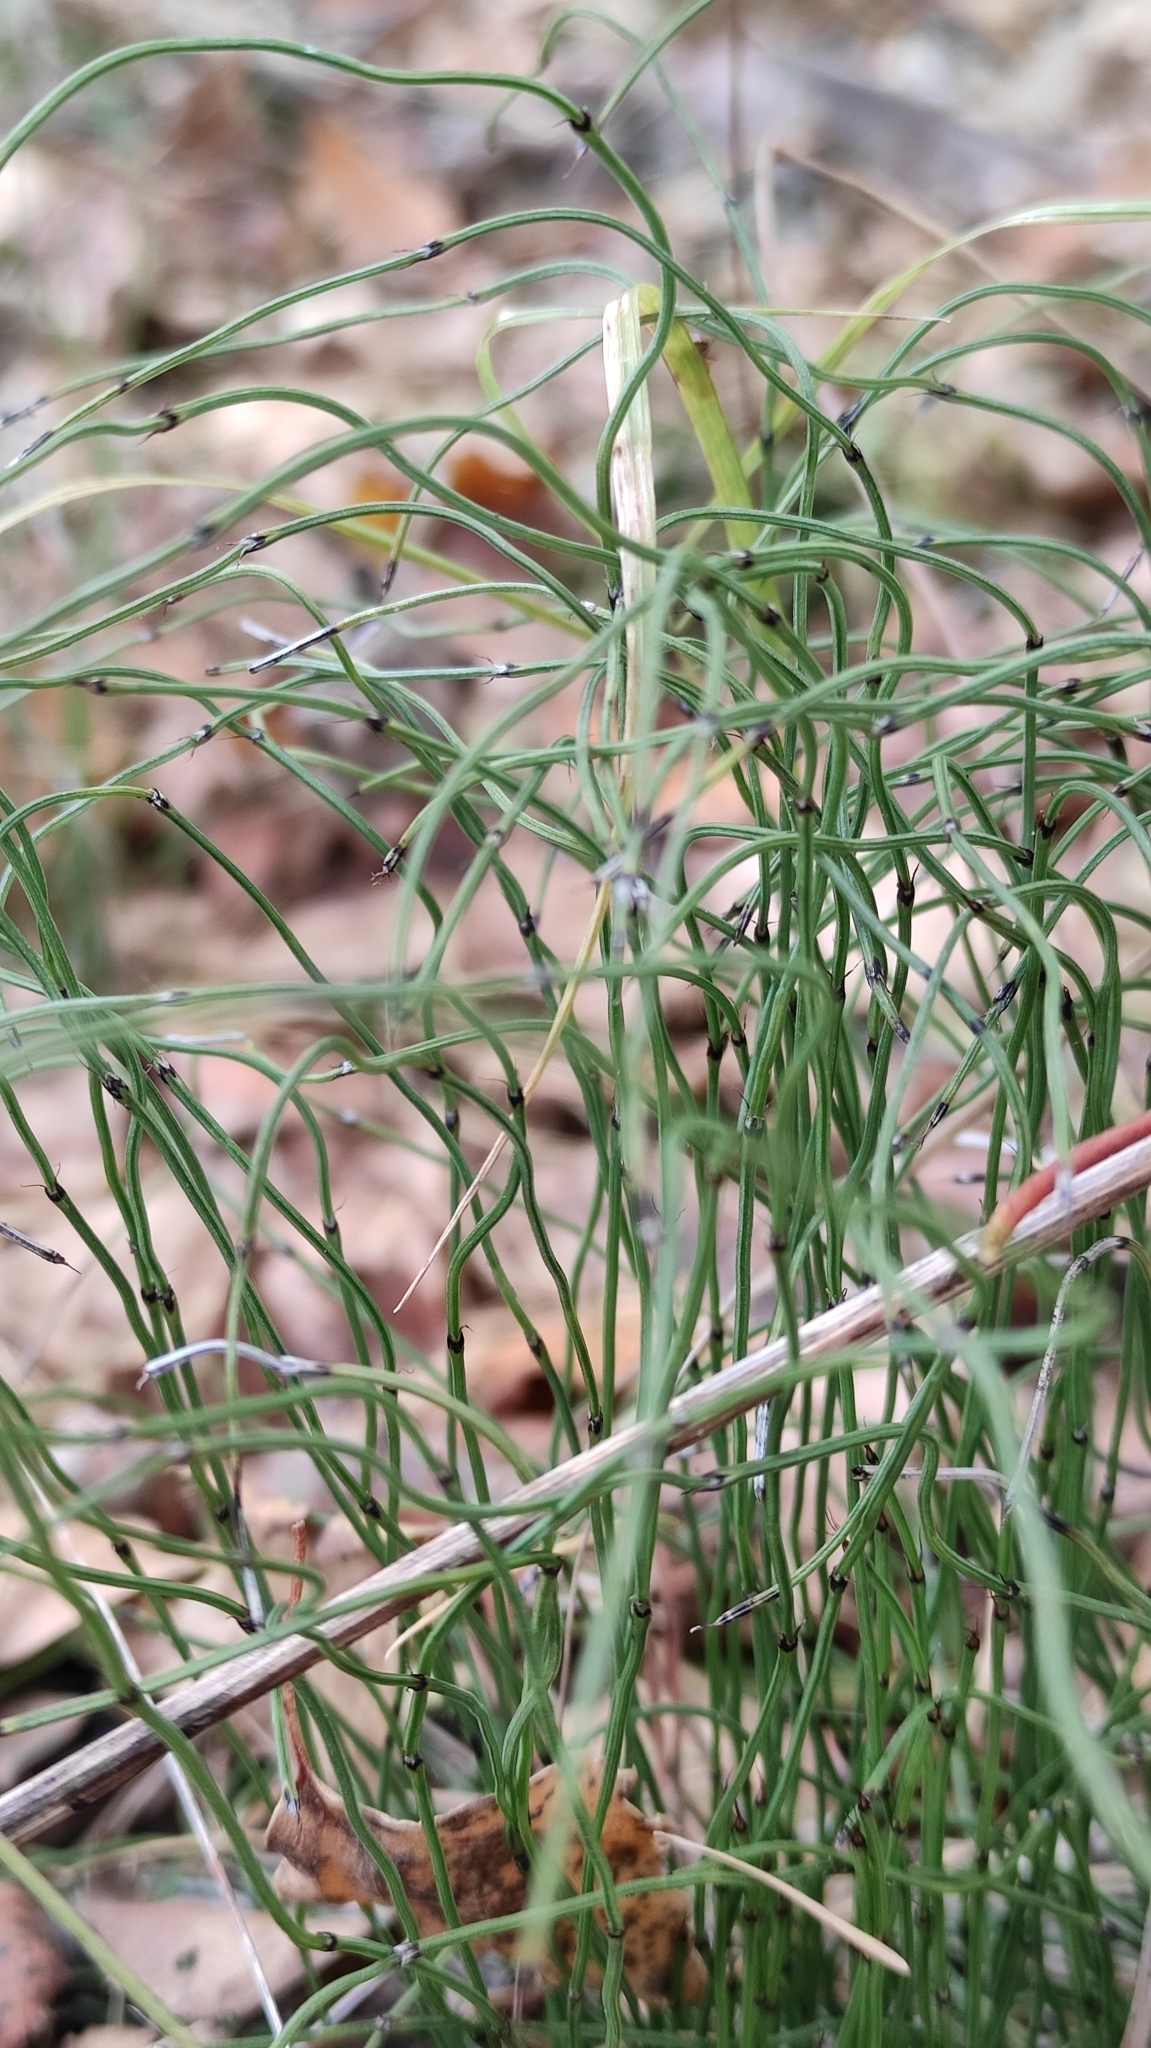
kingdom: Plantae
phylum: Tracheophyta
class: Polypodiopsida
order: Equisetales
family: Equisetaceae
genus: Equisetum
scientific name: Equisetum scirpoides
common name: Delicate horsetail
